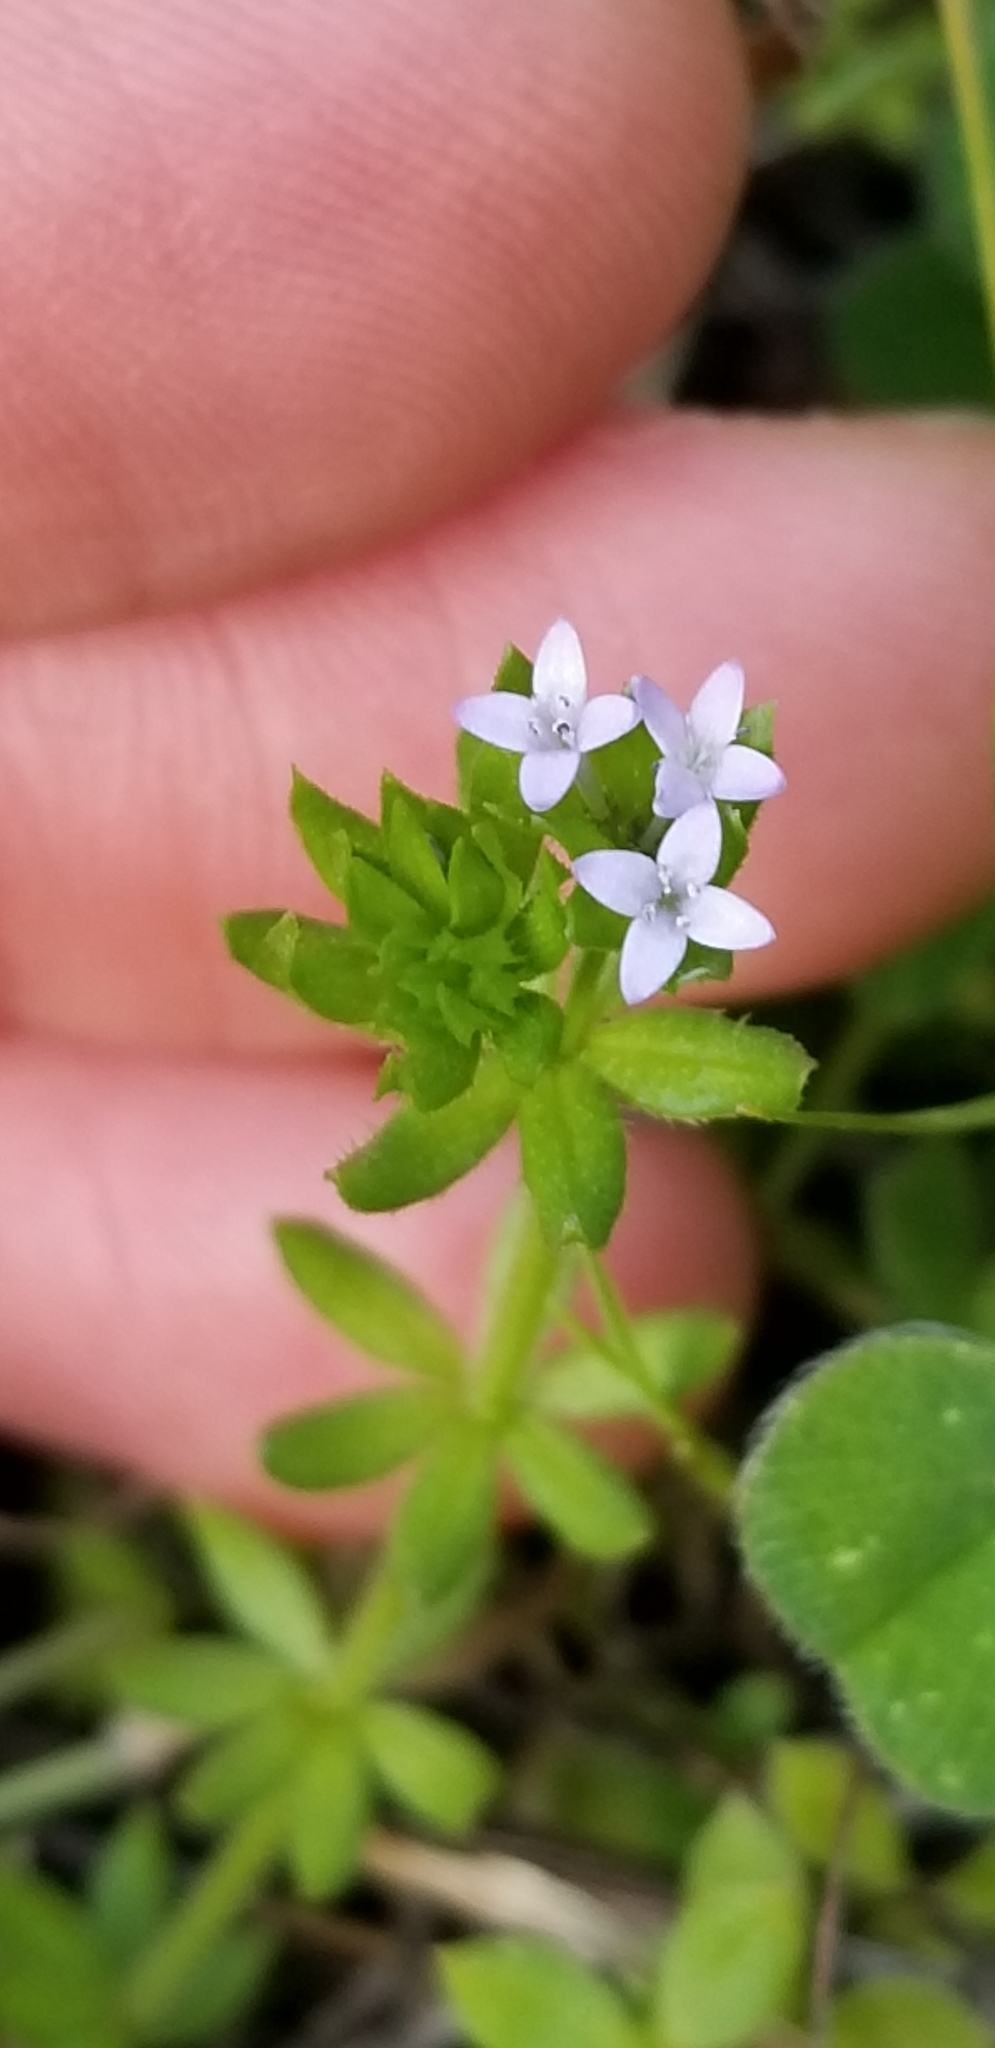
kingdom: Plantae
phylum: Tracheophyta
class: Magnoliopsida
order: Gentianales
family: Rubiaceae
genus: Sherardia
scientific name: Sherardia arvensis
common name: Field madder
